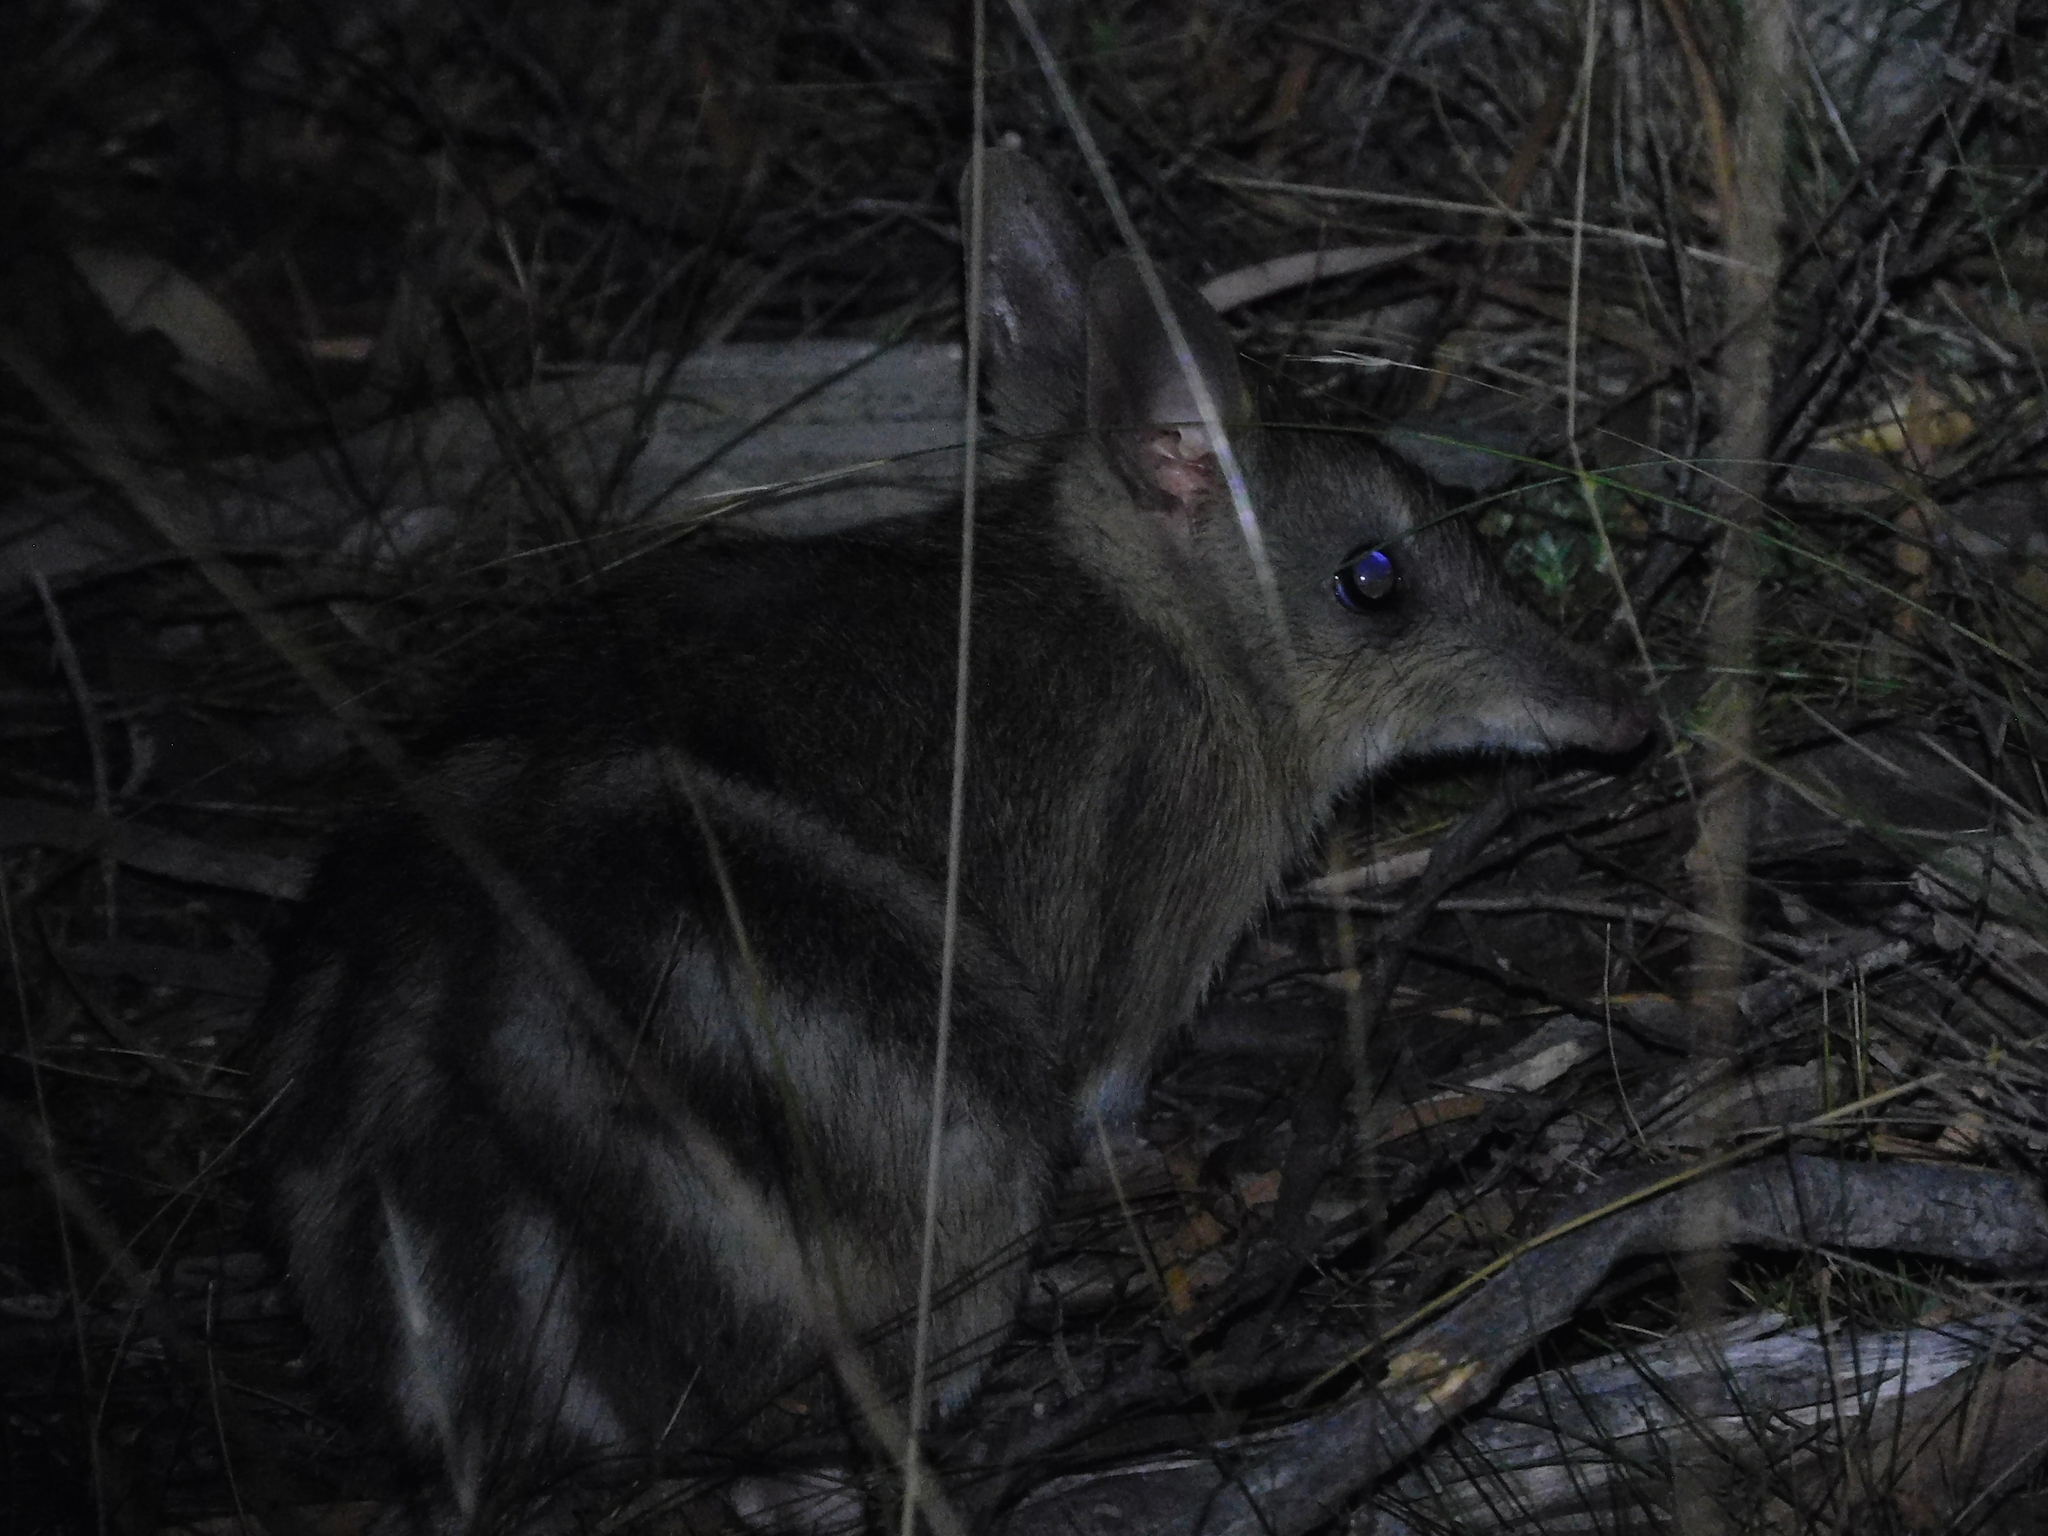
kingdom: Animalia
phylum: Chordata
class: Mammalia
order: Peramelemorphia
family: Peramelidae
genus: Perameles
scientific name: Perameles gunnii
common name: Eastern barred bandicoot
